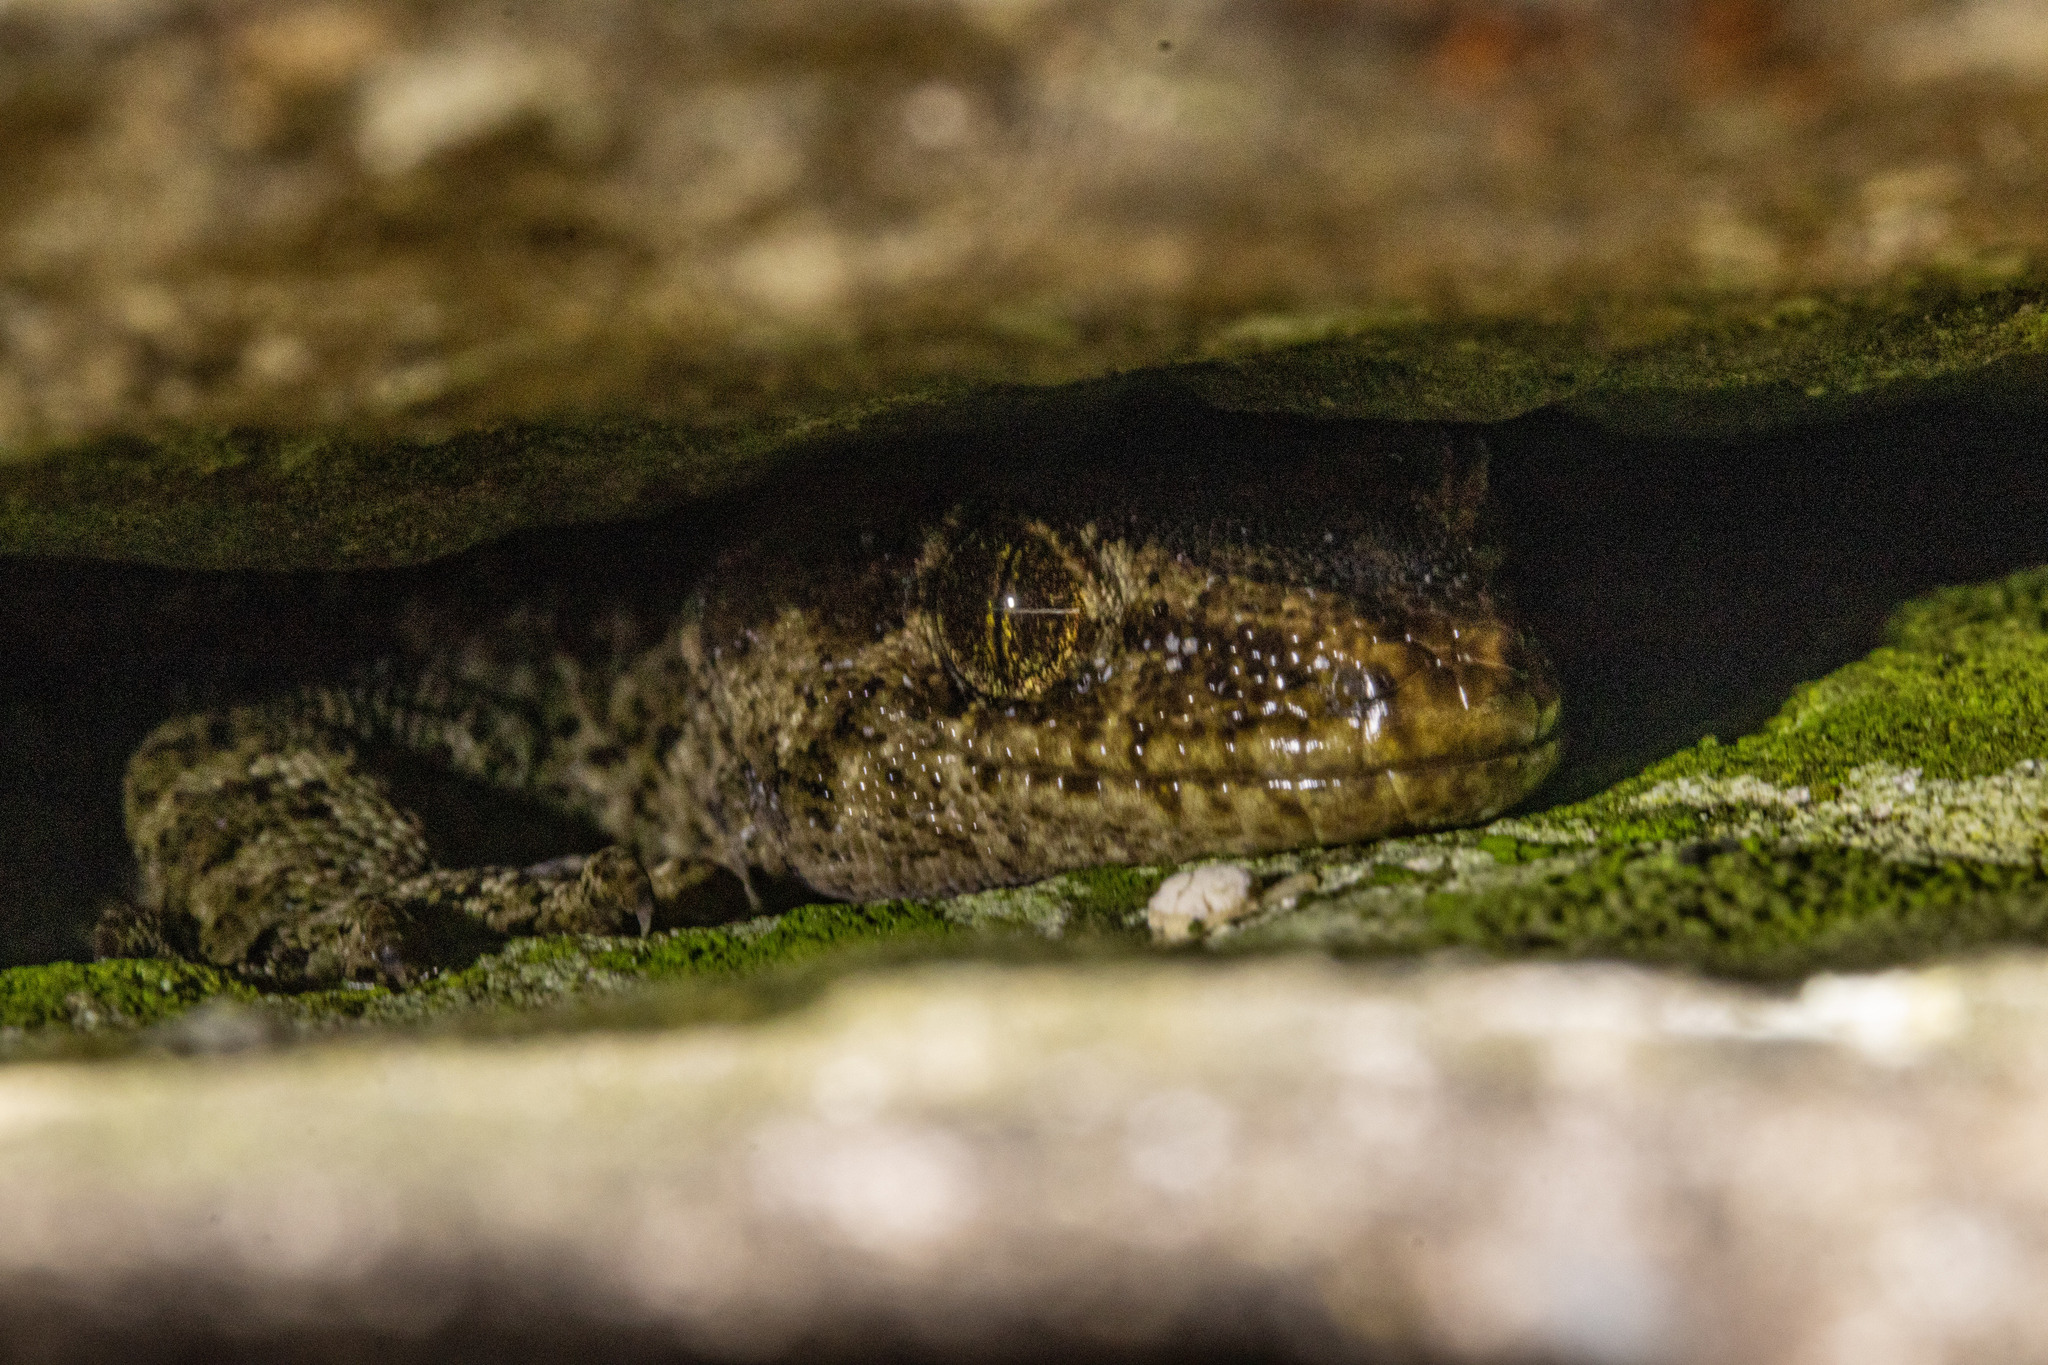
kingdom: Animalia
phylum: Chordata
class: Squamata
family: Diplodactylidae
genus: Woodworthia
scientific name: Woodworthia
